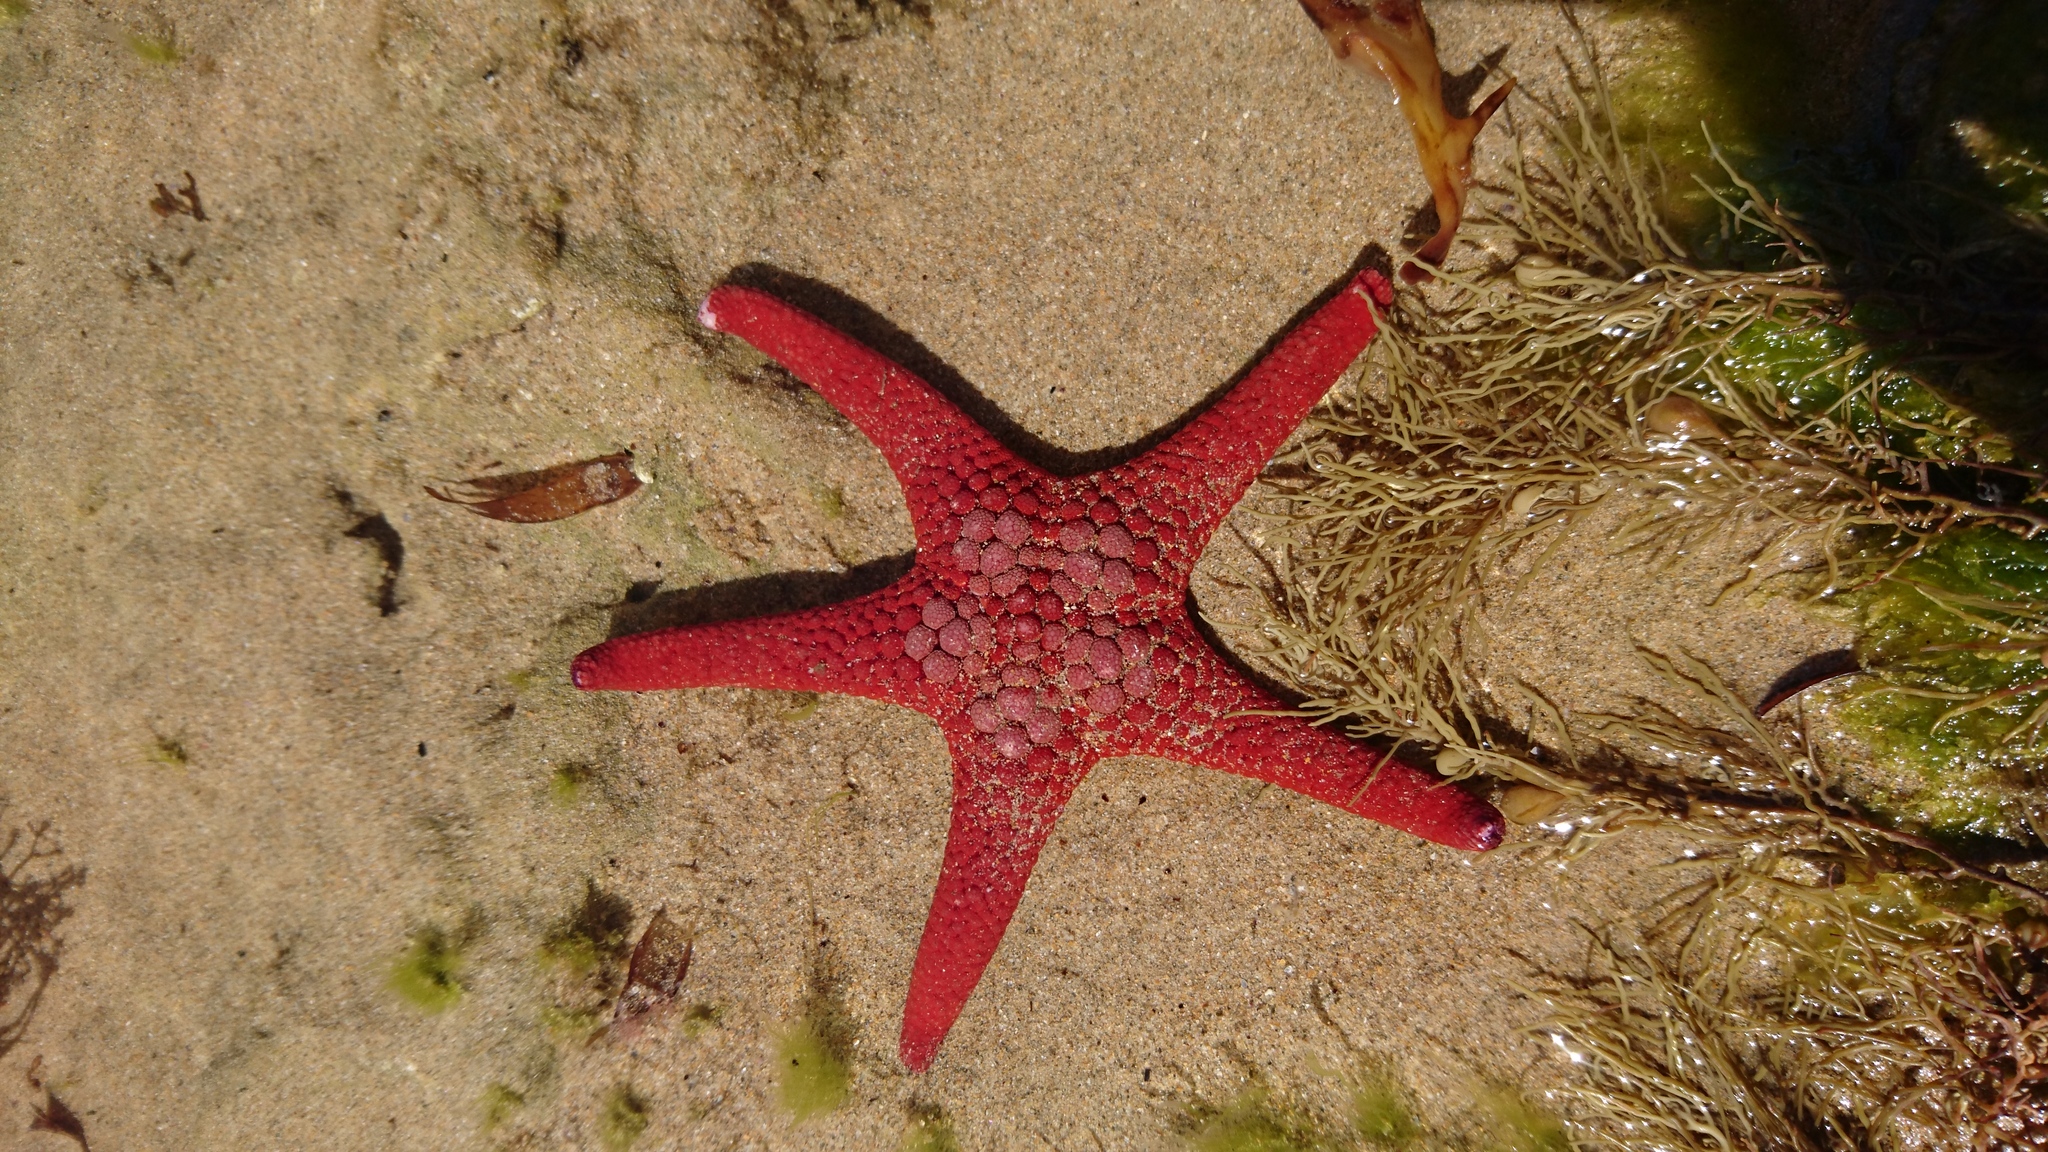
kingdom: Animalia
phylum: Echinodermata
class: Asteroidea
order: Valvatida
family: Goniasteridae
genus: Nectria
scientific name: Nectria ocellata
